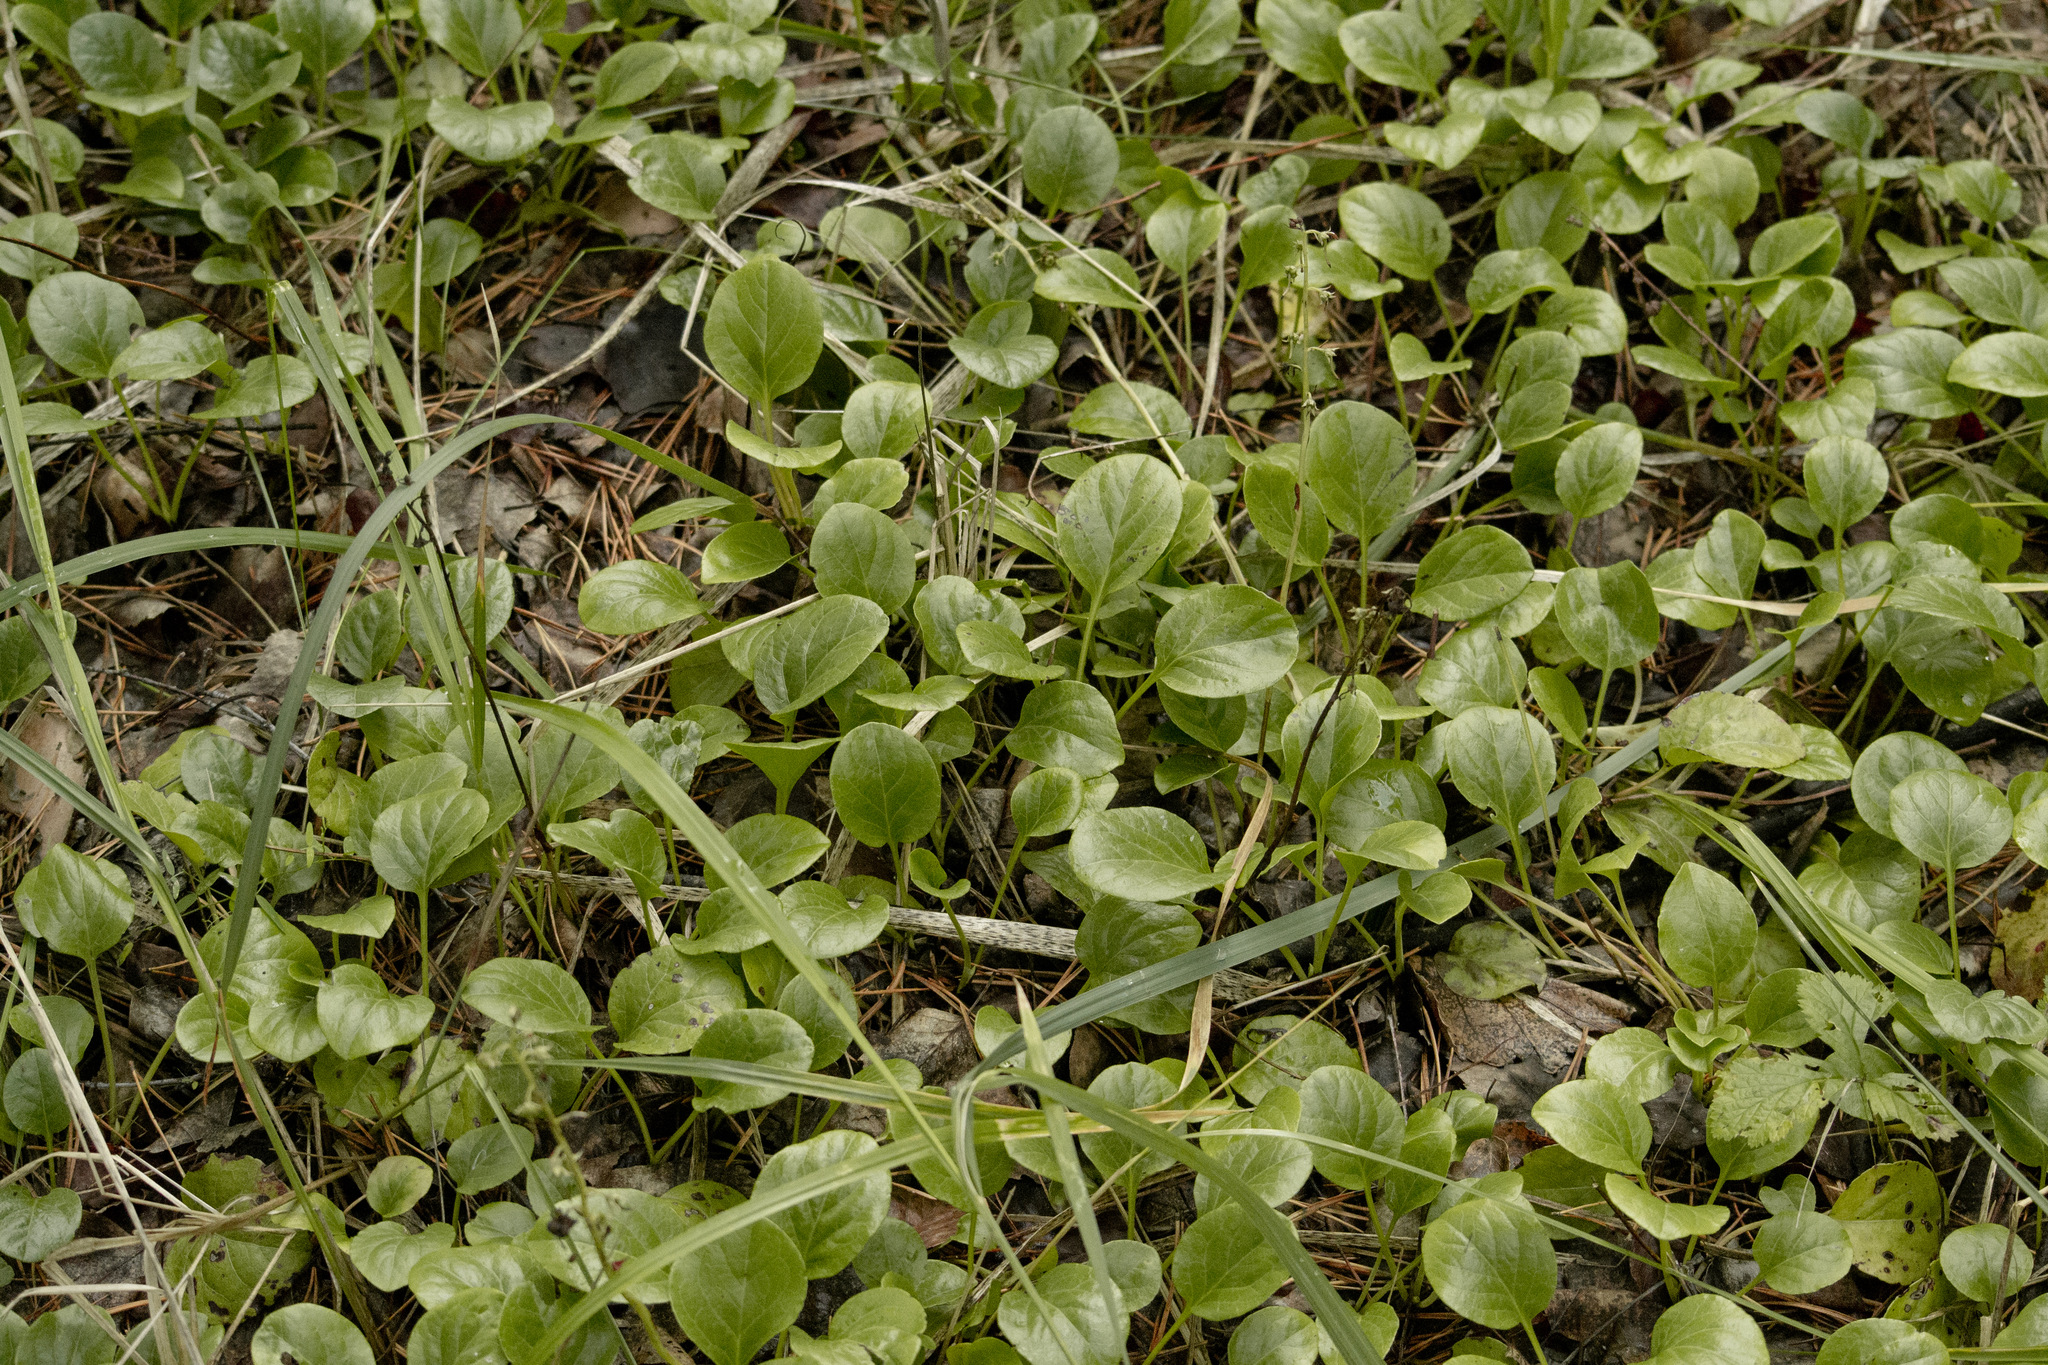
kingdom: Plantae
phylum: Tracheophyta
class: Magnoliopsida
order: Ericales
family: Ericaceae
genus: Pyrola
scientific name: Pyrola rotundifolia
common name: Round-leaved wintergreen
